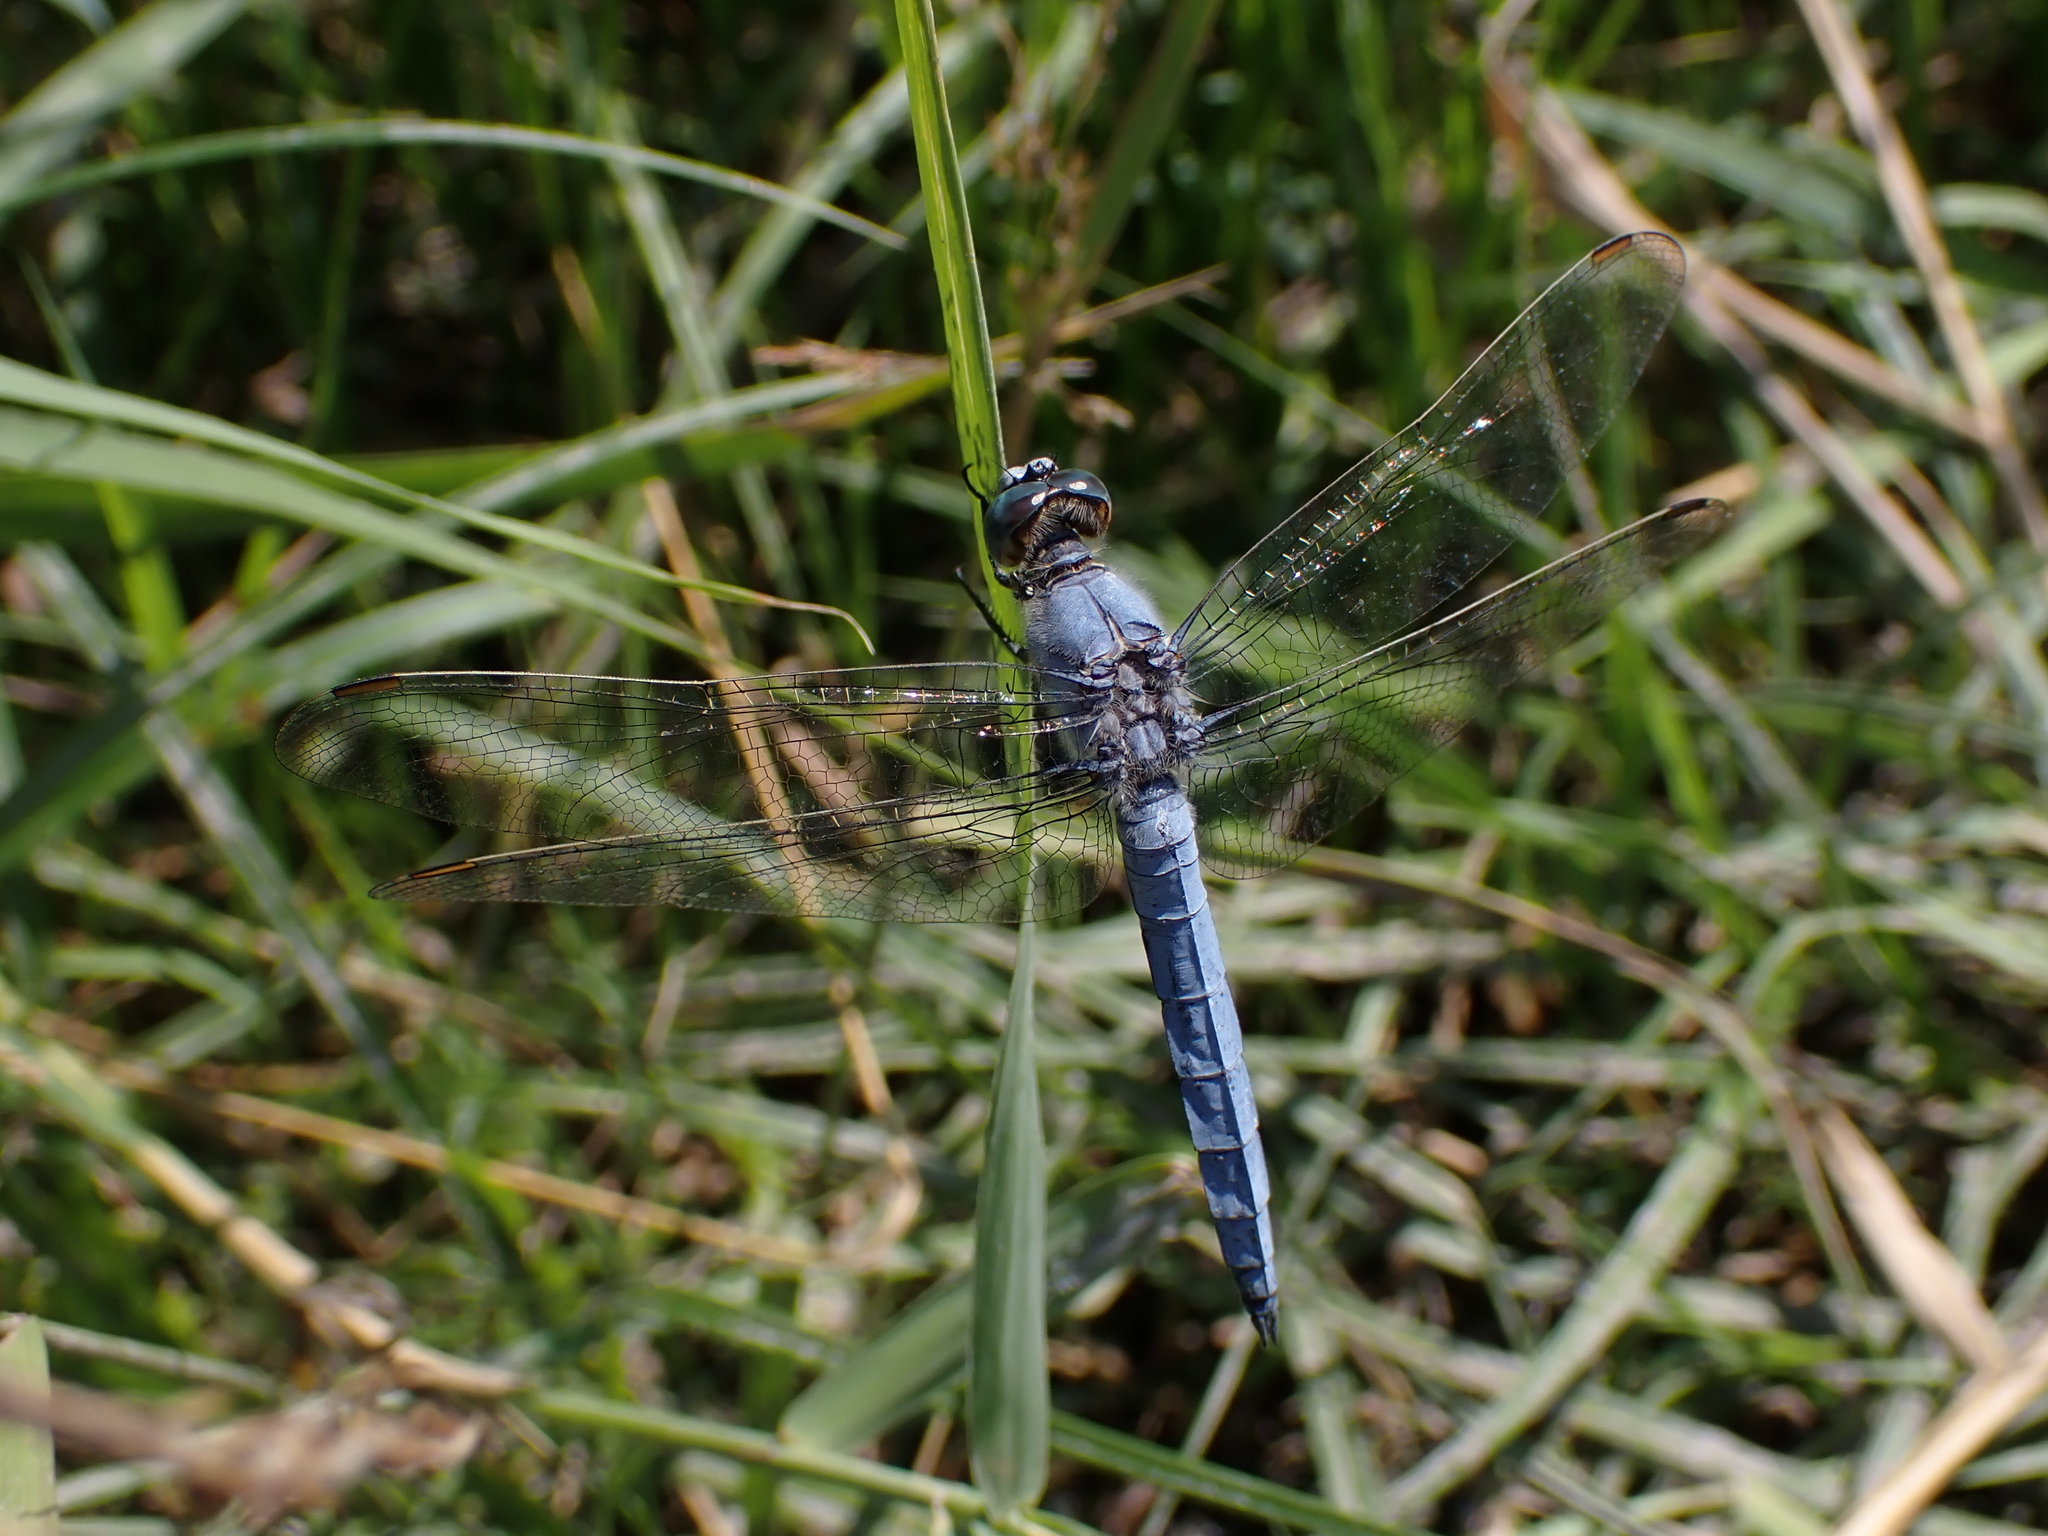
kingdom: Animalia
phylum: Arthropoda
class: Insecta
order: Odonata
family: Libellulidae
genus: Orthetrum
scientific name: Orthetrum brunneum
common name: Southern skimmer
